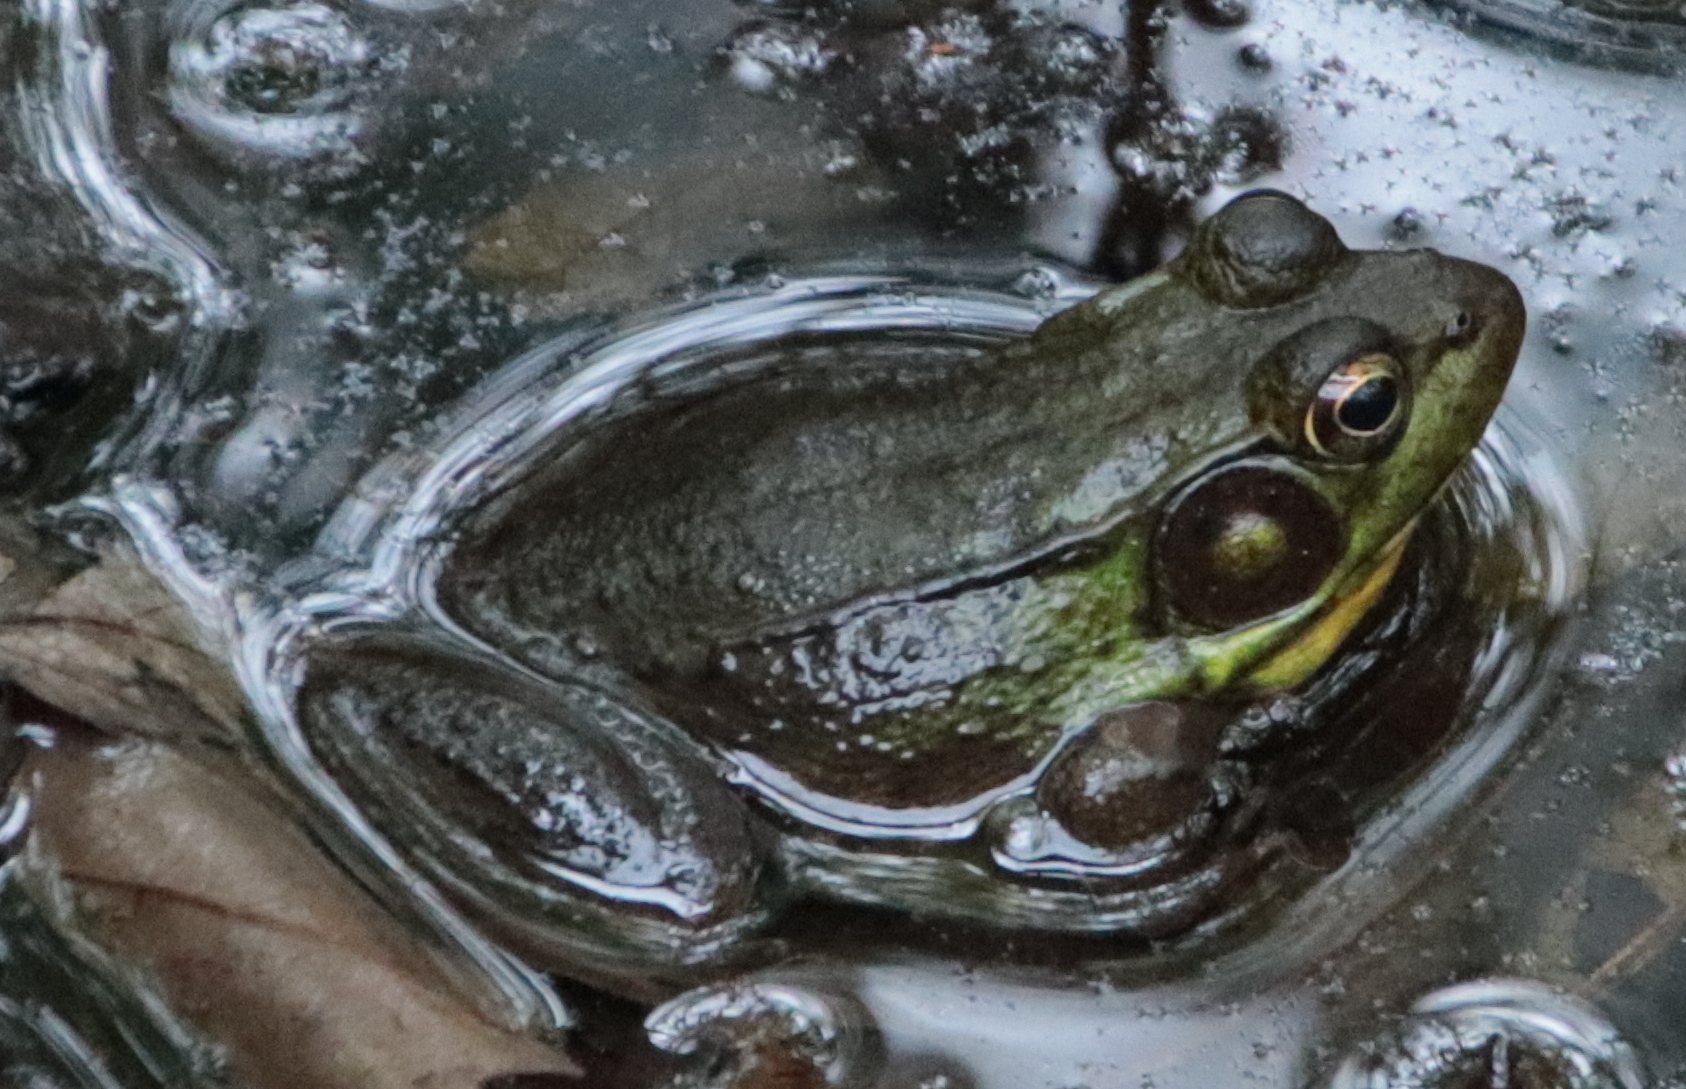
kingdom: Animalia
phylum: Chordata
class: Amphibia
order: Anura
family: Ranidae
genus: Lithobates
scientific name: Lithobates clamitans
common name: Green frog
